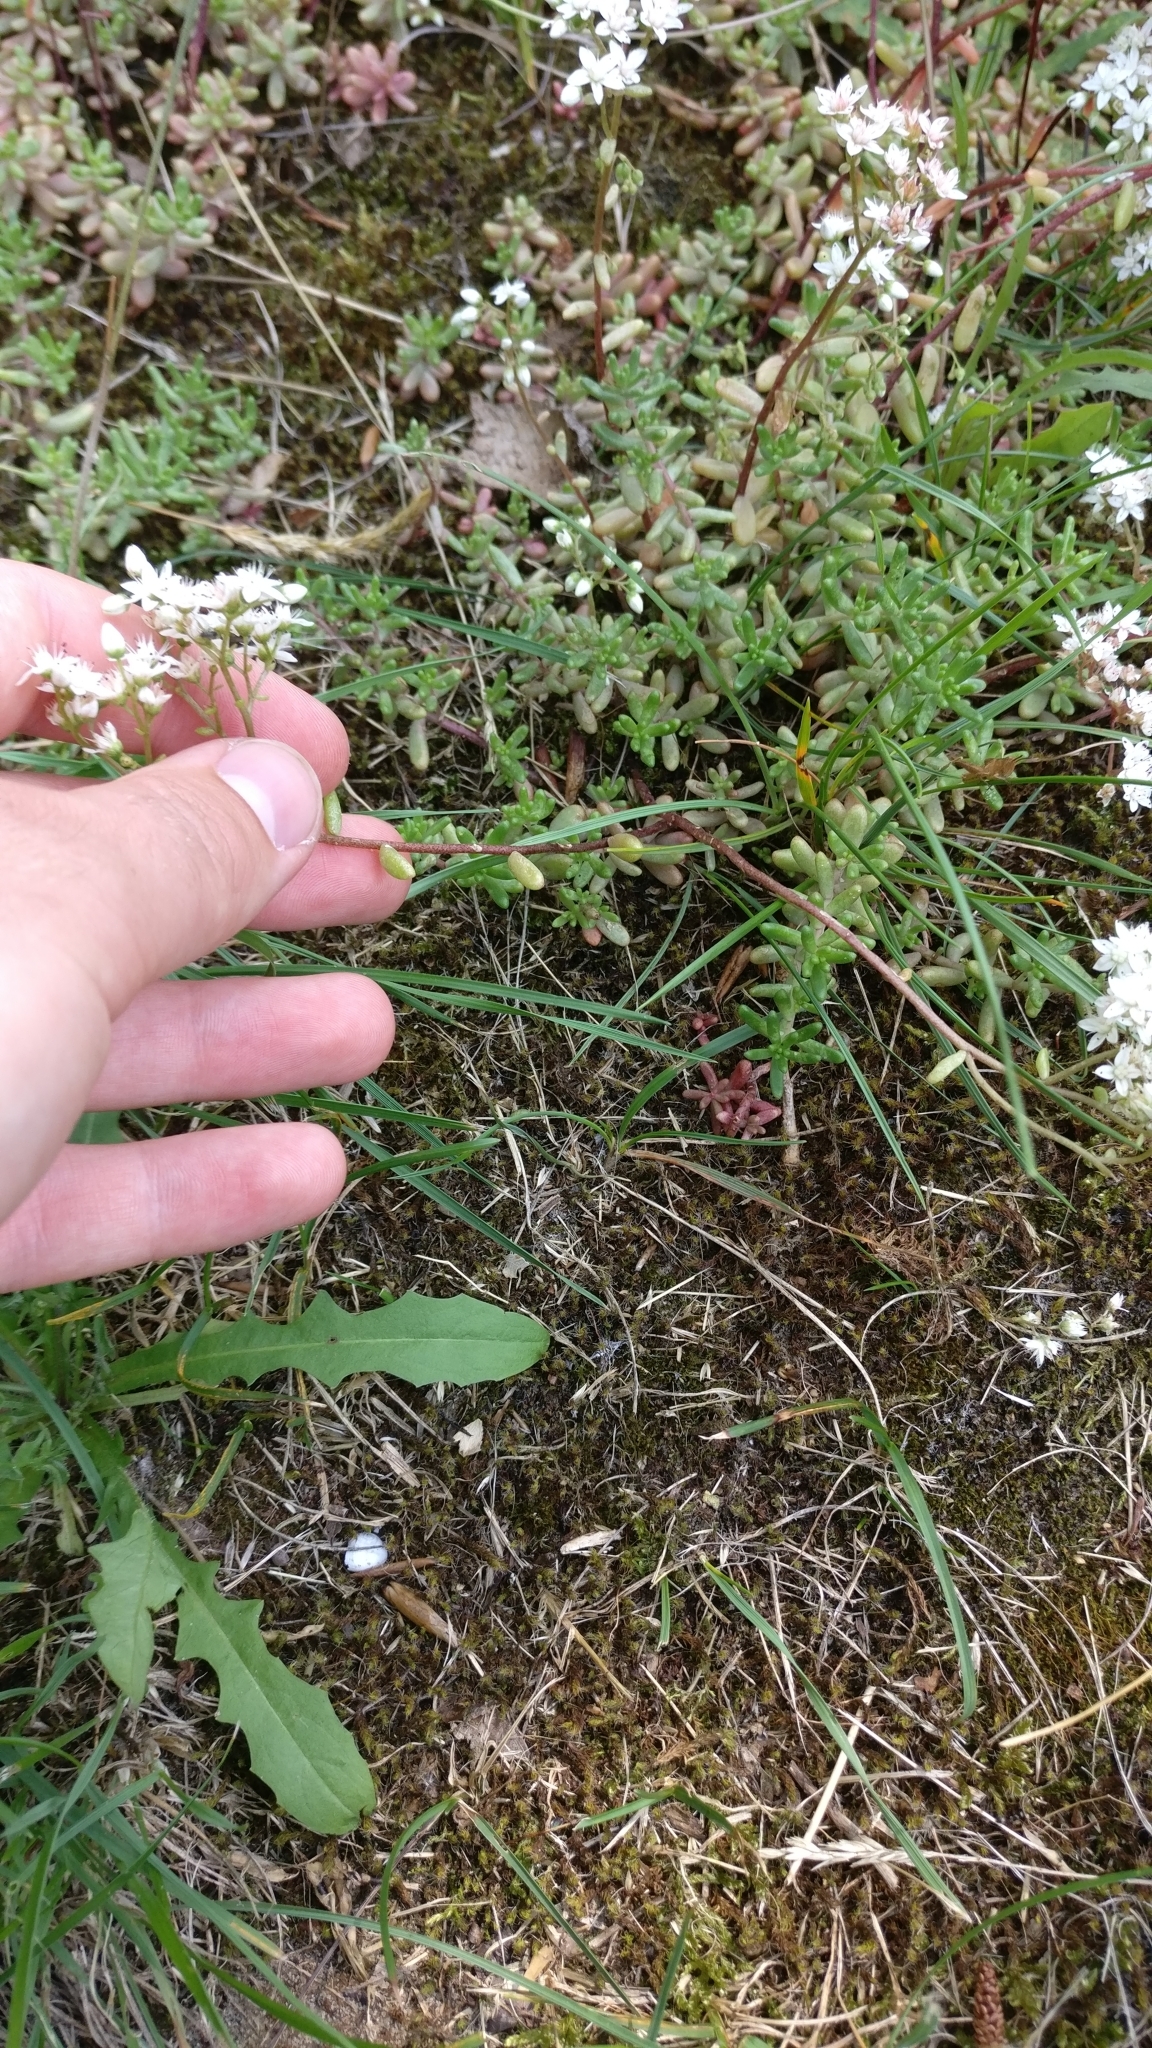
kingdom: Plantae
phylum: Tracheophyta
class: Magnoliopsida
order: Saxifragales
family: Crassulaceae
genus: Sedum
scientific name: Sedum album
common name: White stonecrop
